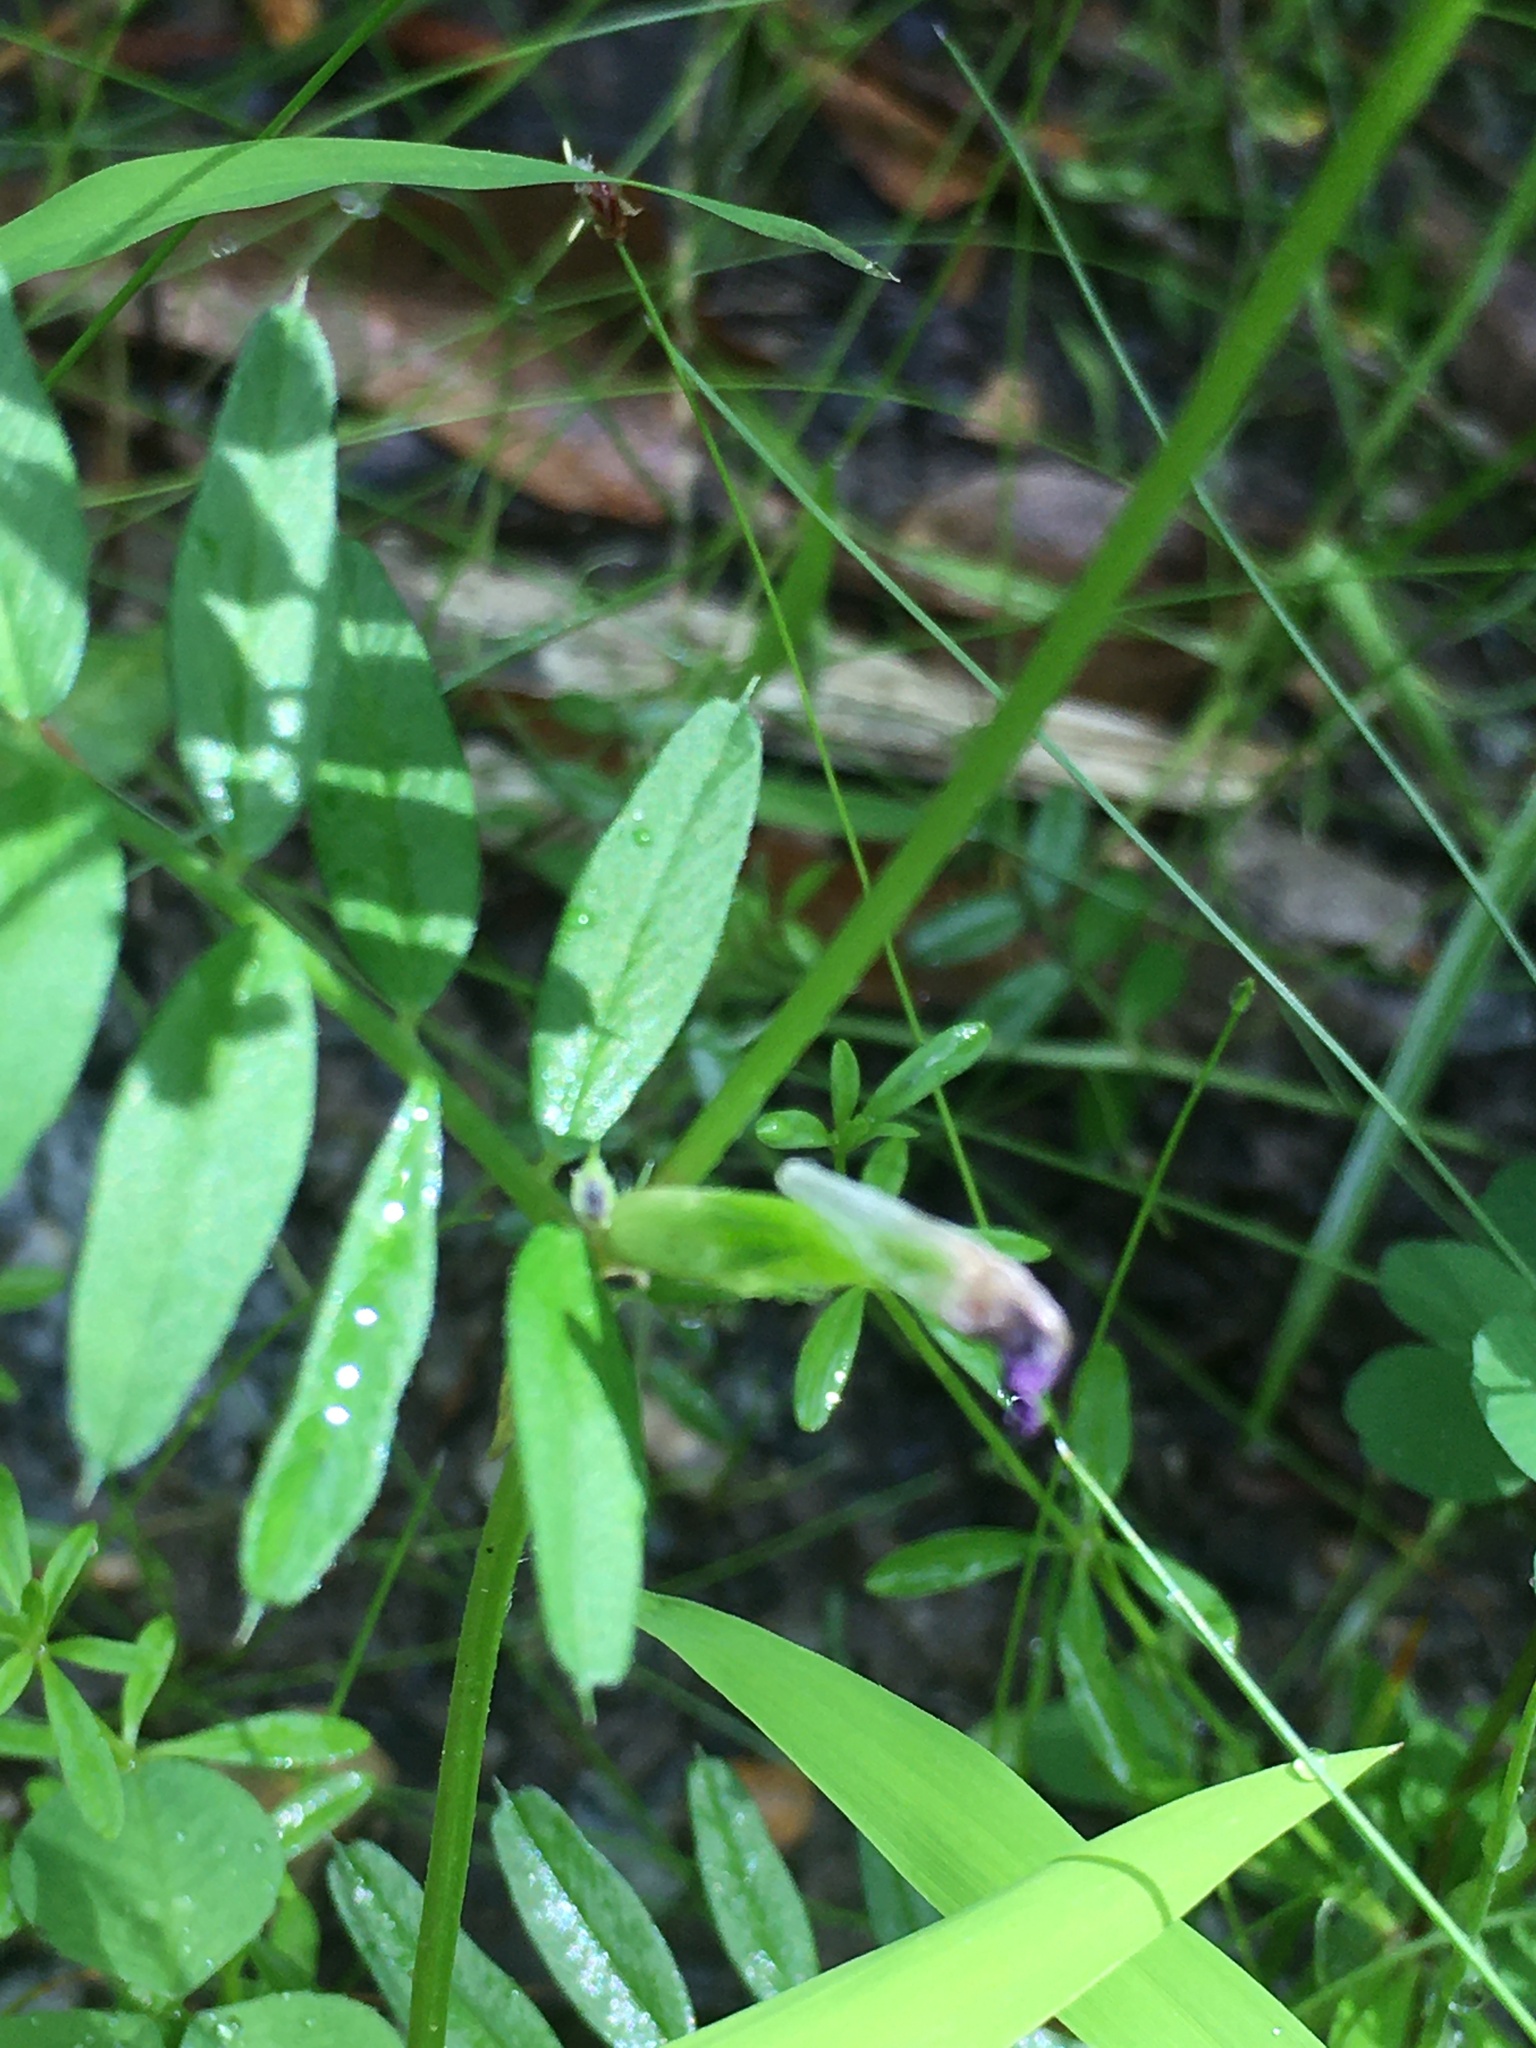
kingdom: Plantae
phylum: Tracheophyta
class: Magnoliopsida
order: Fabales
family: Fabaceae
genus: Vicia
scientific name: Vicia sativa
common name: Garden vetch
